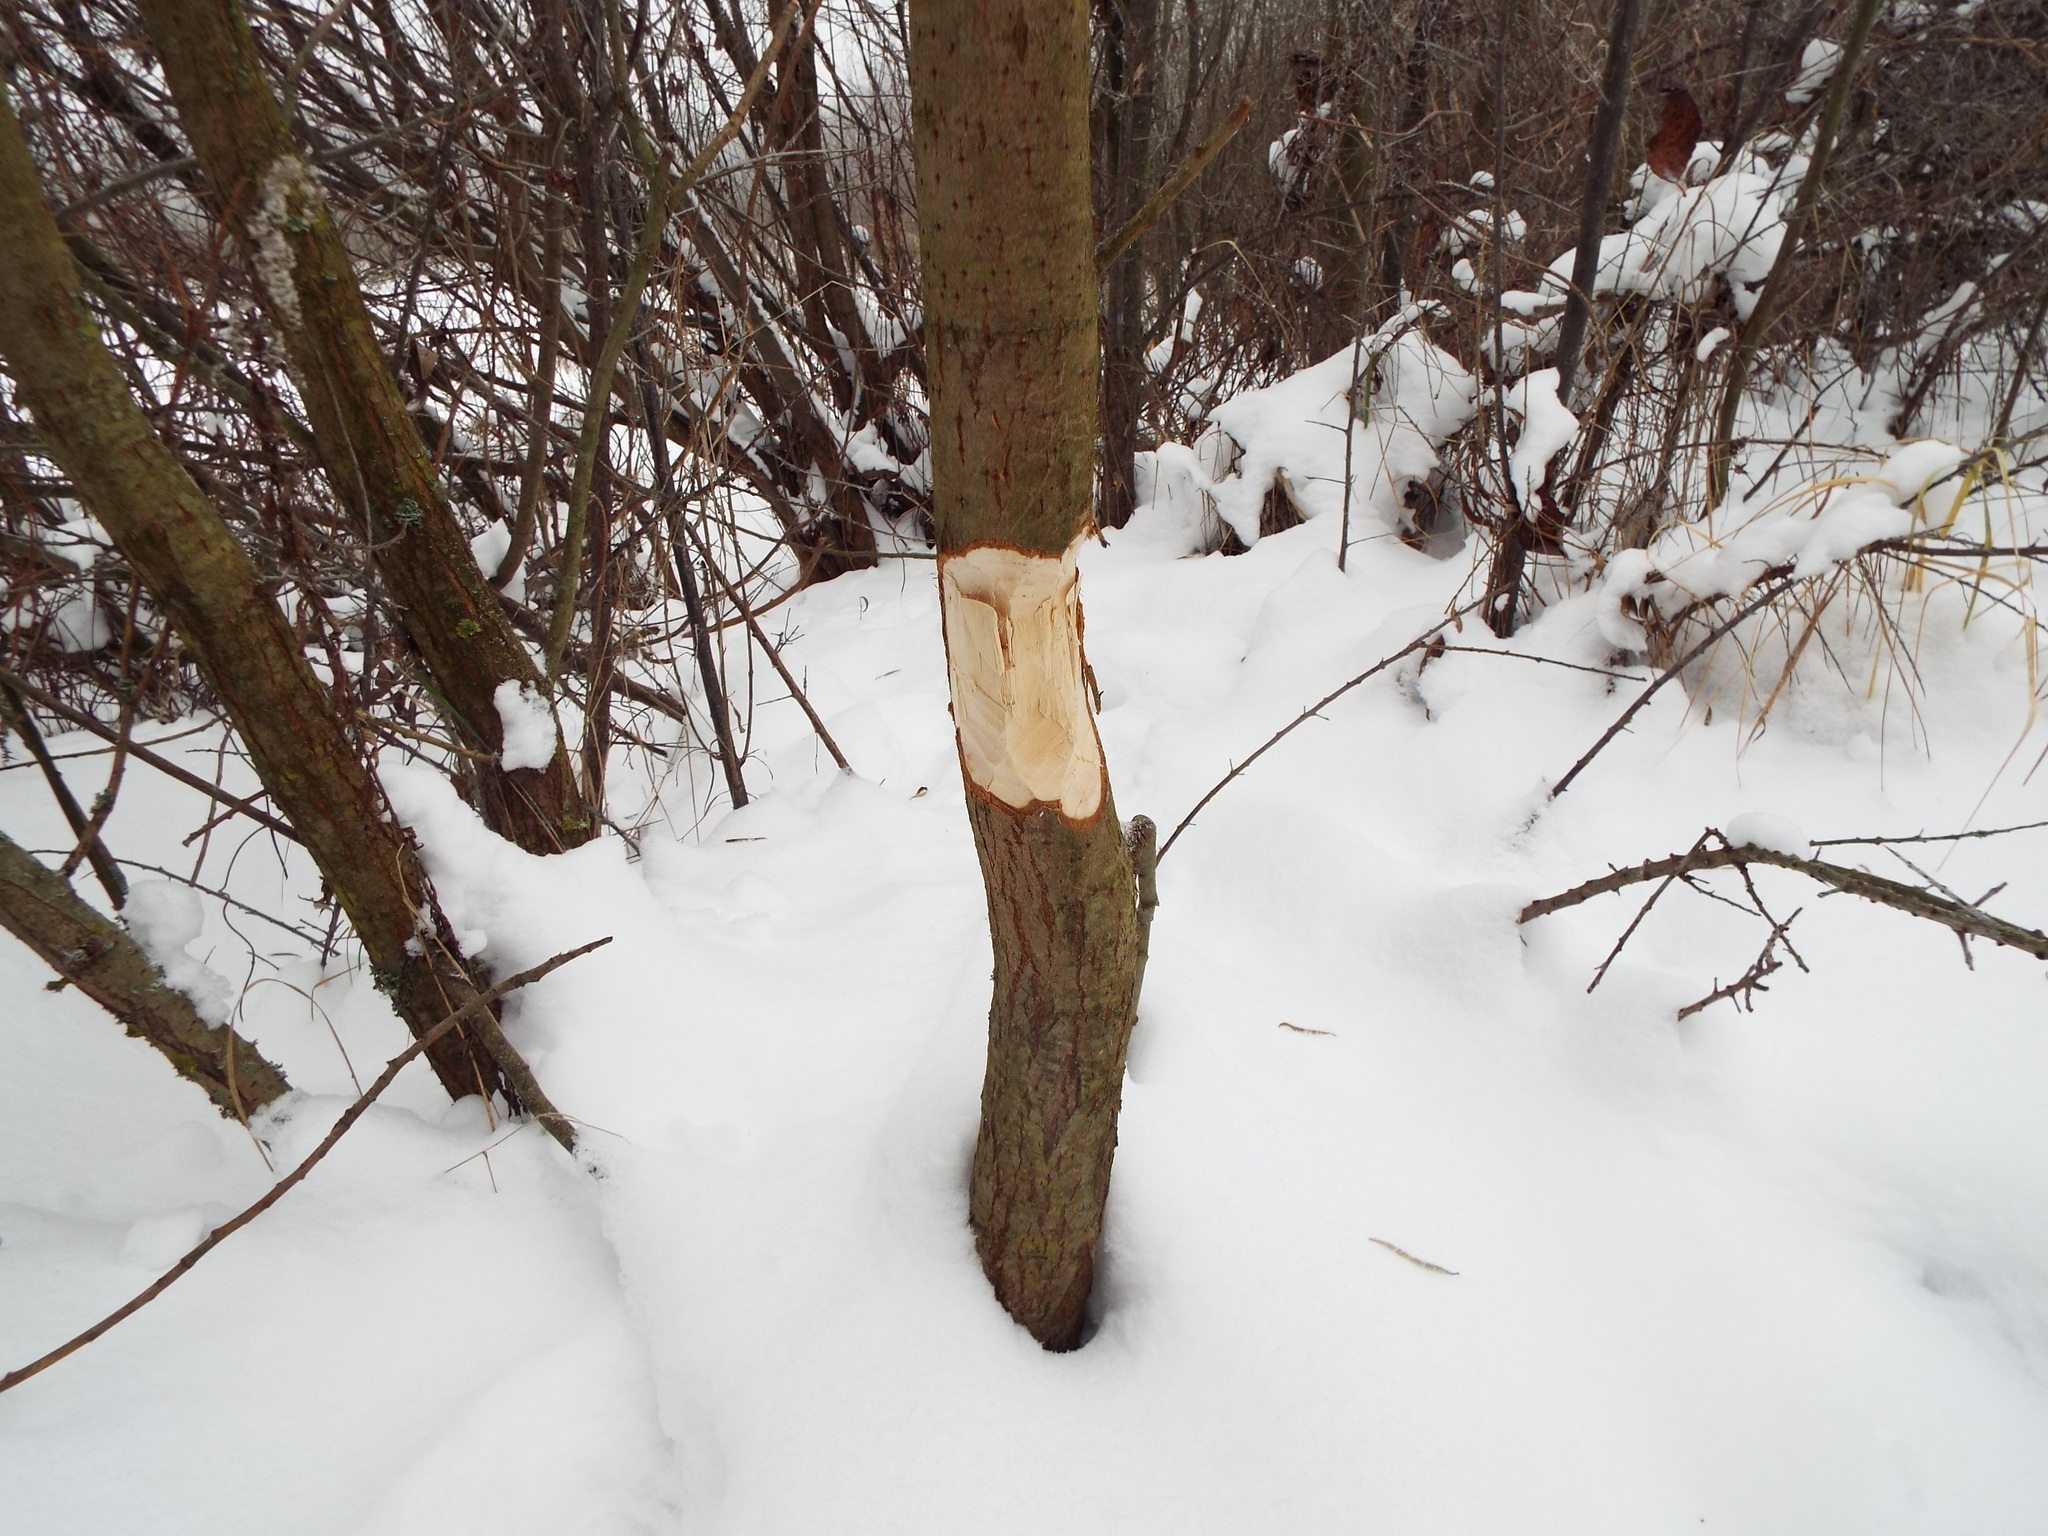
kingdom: Animalia
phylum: Chordata
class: Mammalia
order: Rodentia
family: Castoridae
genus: Castor
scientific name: Castor fiber
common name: Eurasian beaver
